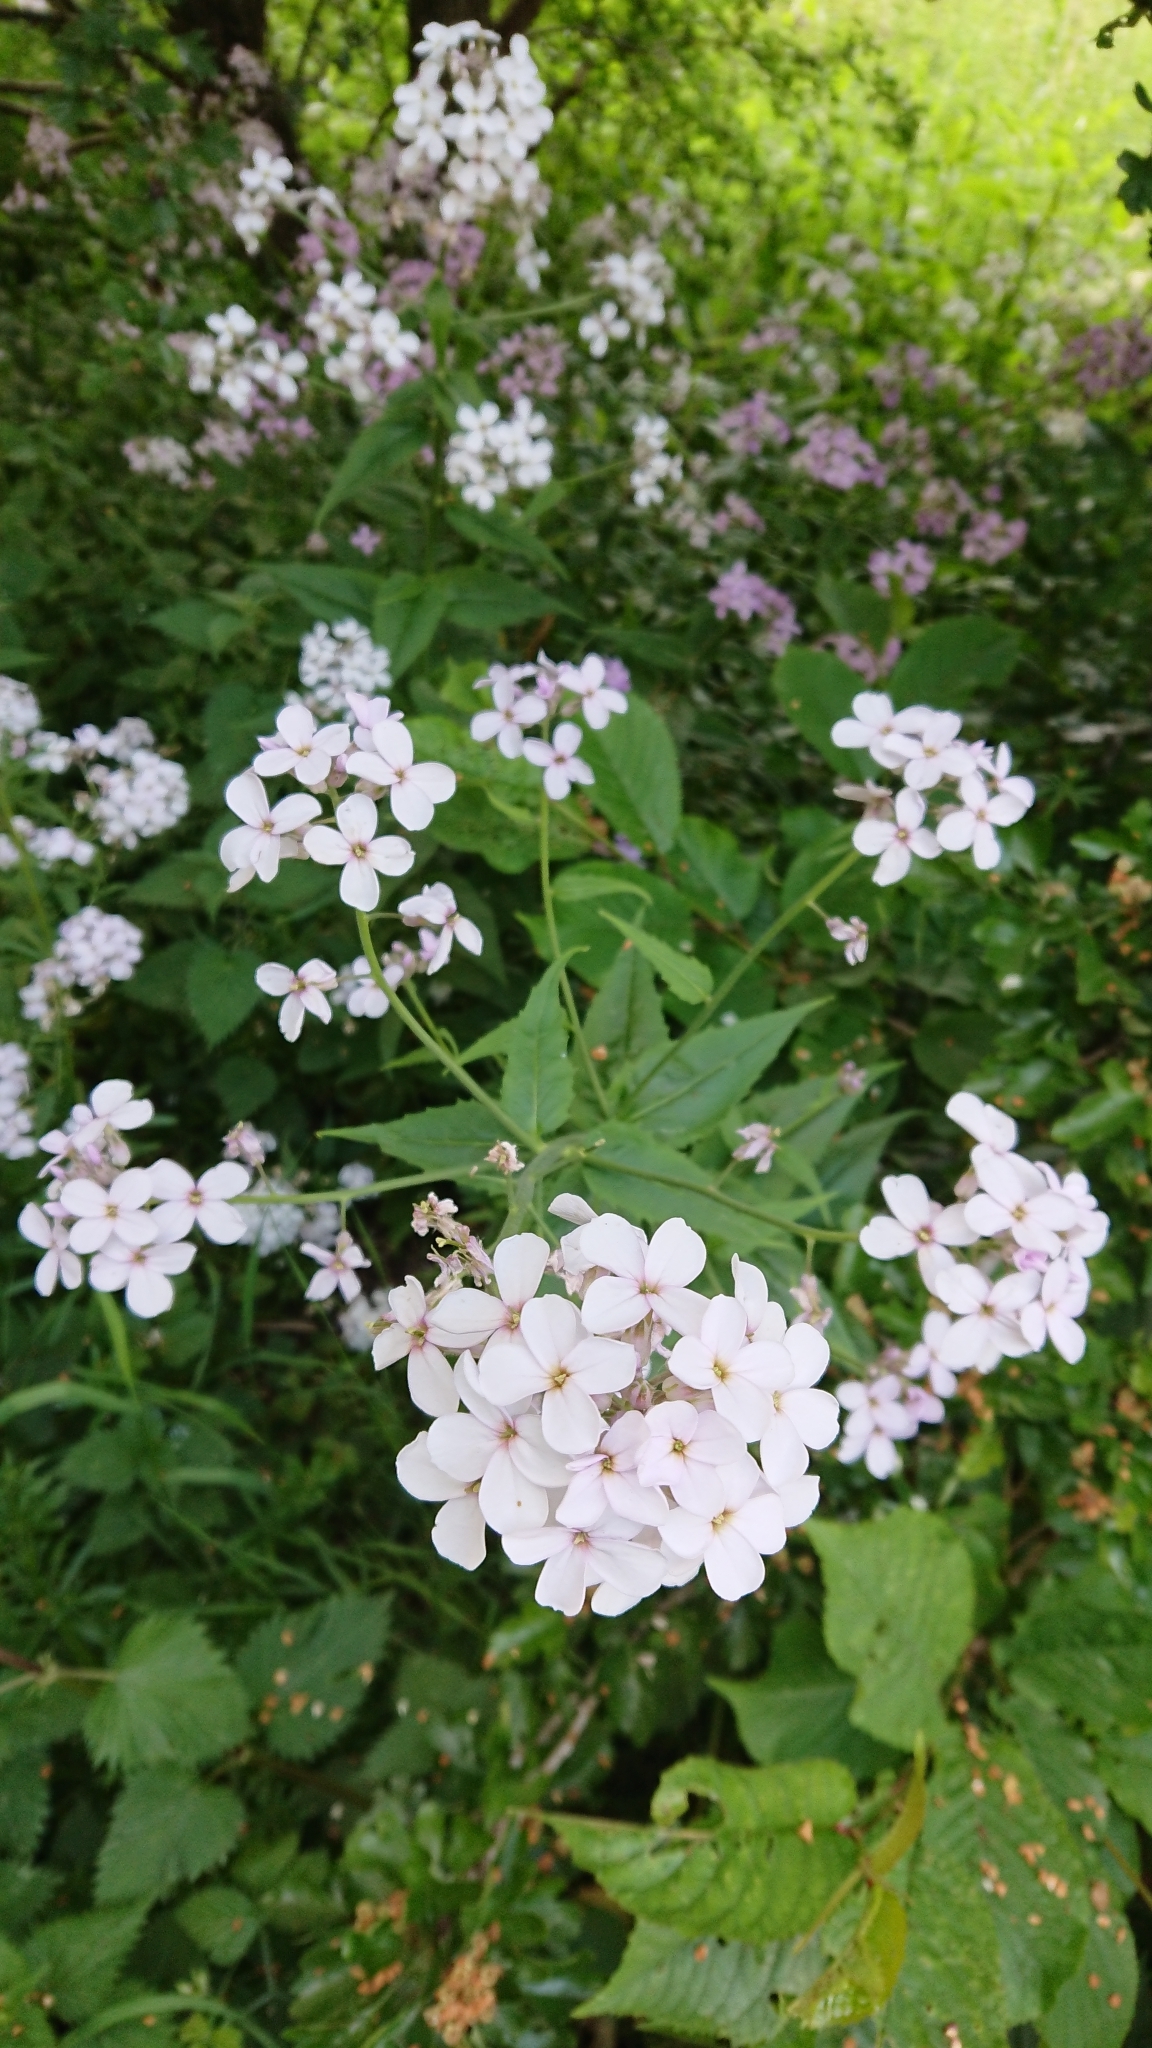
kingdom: Plantae
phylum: Tracheophyta
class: Magnoliopsida
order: Brassicales
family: Brassicaceae
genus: Hesperis
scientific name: Hesperis matronalis
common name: Dame's-violet
